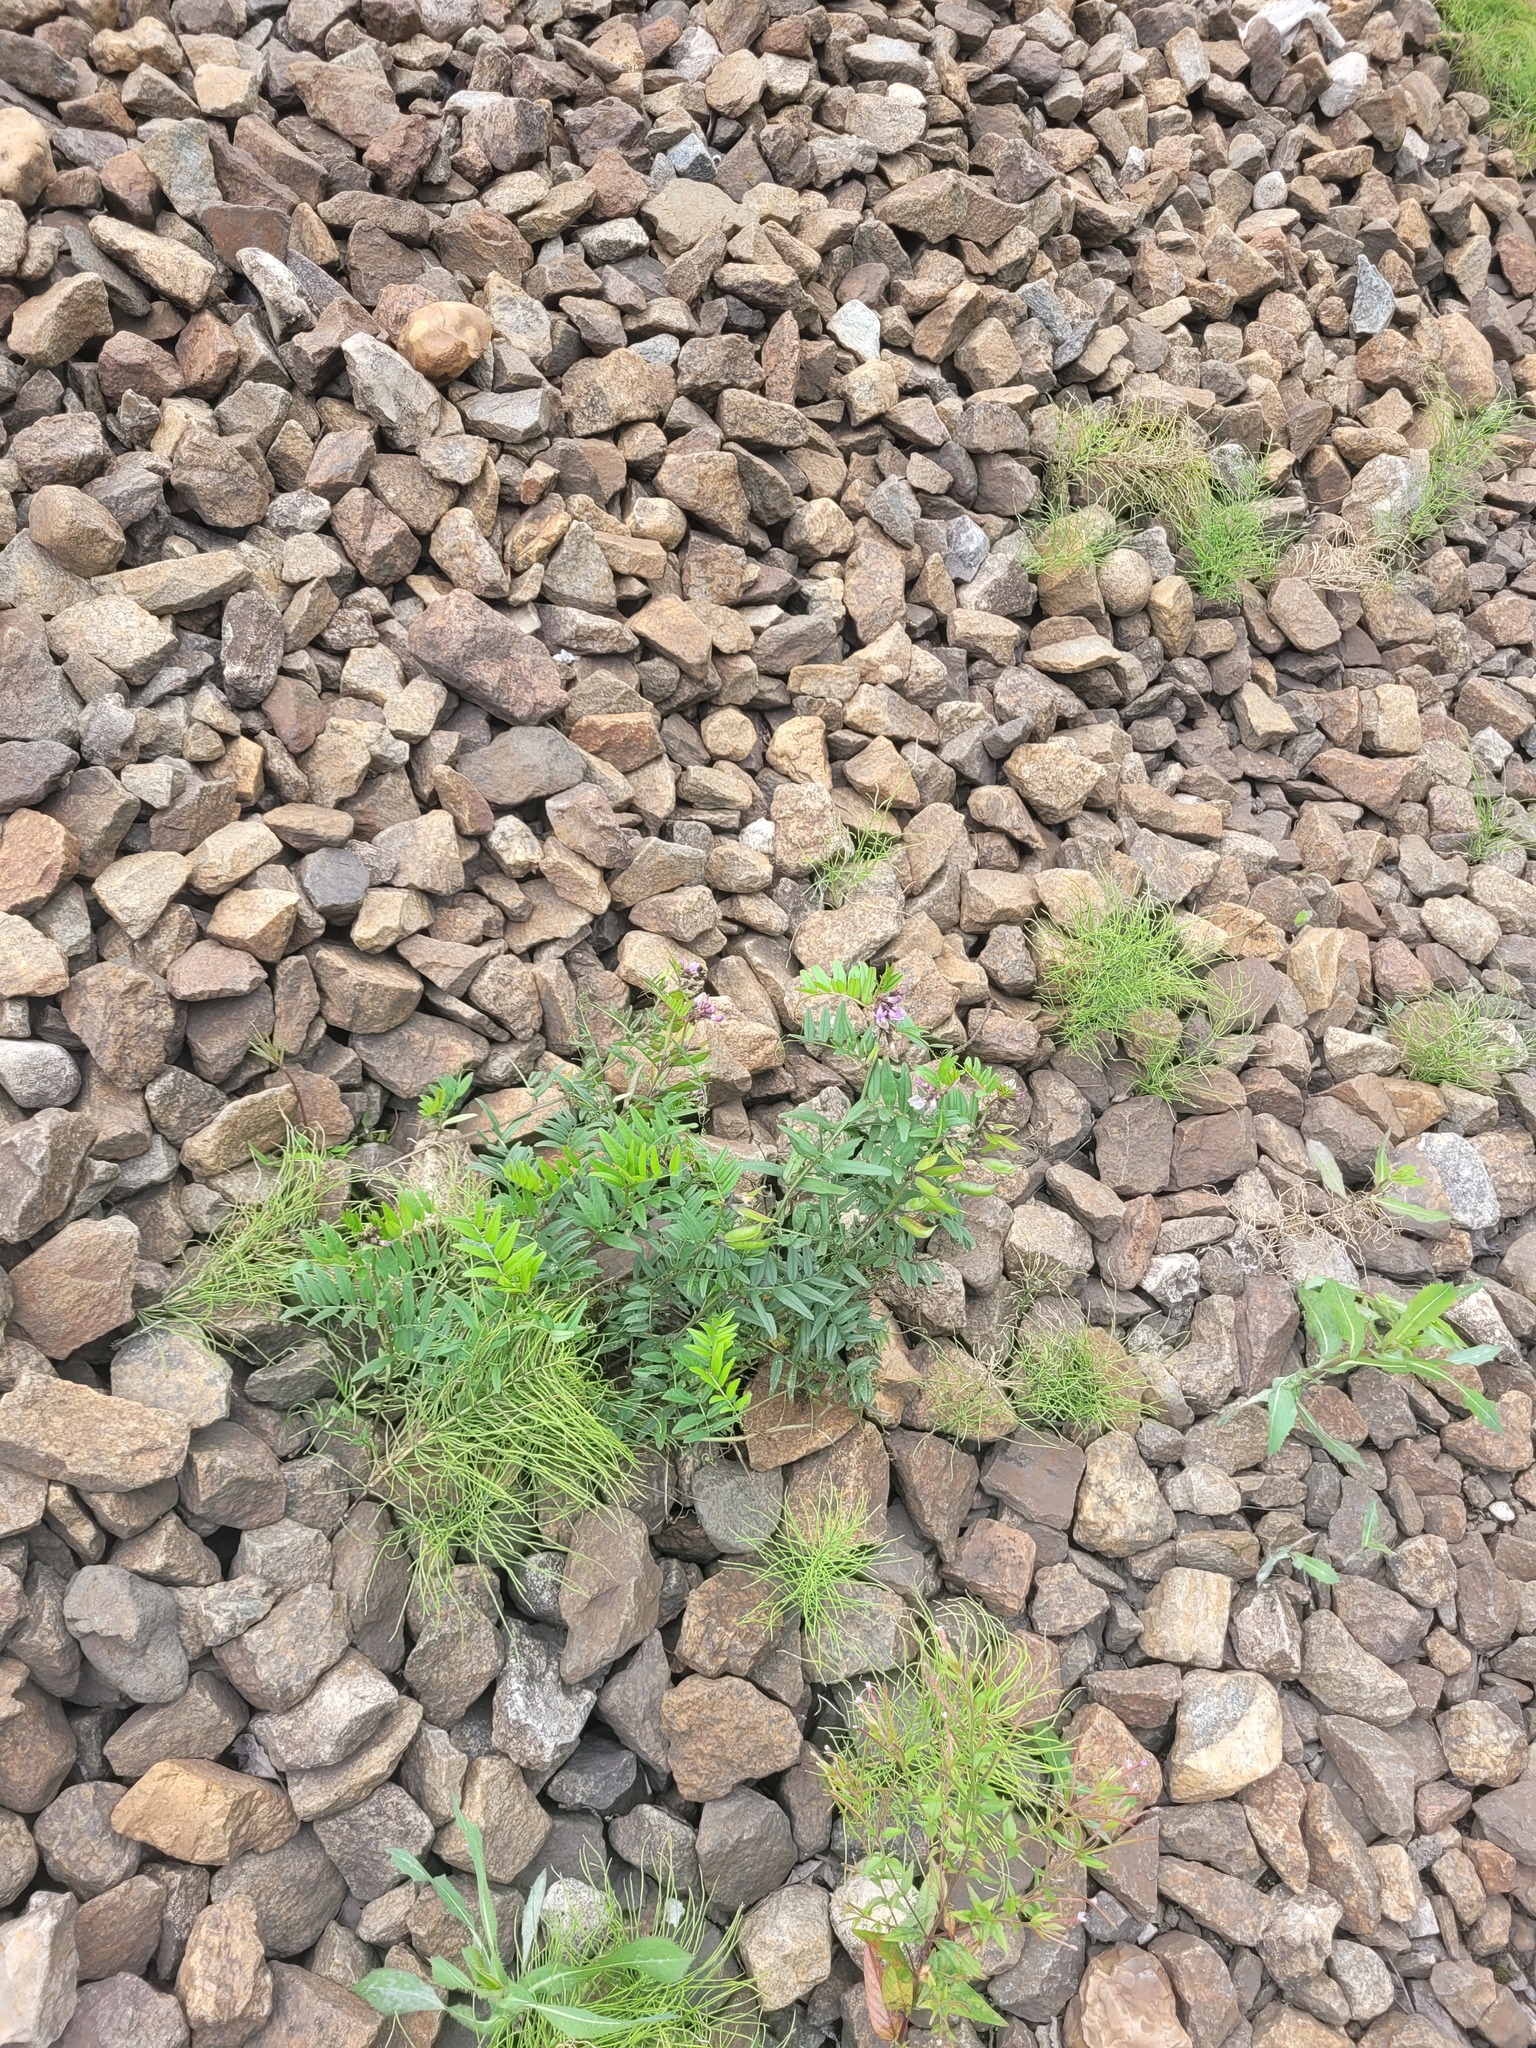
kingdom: Plantae
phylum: Tracheophyta
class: Magnoliopsida
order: Fabales
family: Fabaceae
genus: Vicia
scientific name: Vicia sepium
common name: Bush vetch
